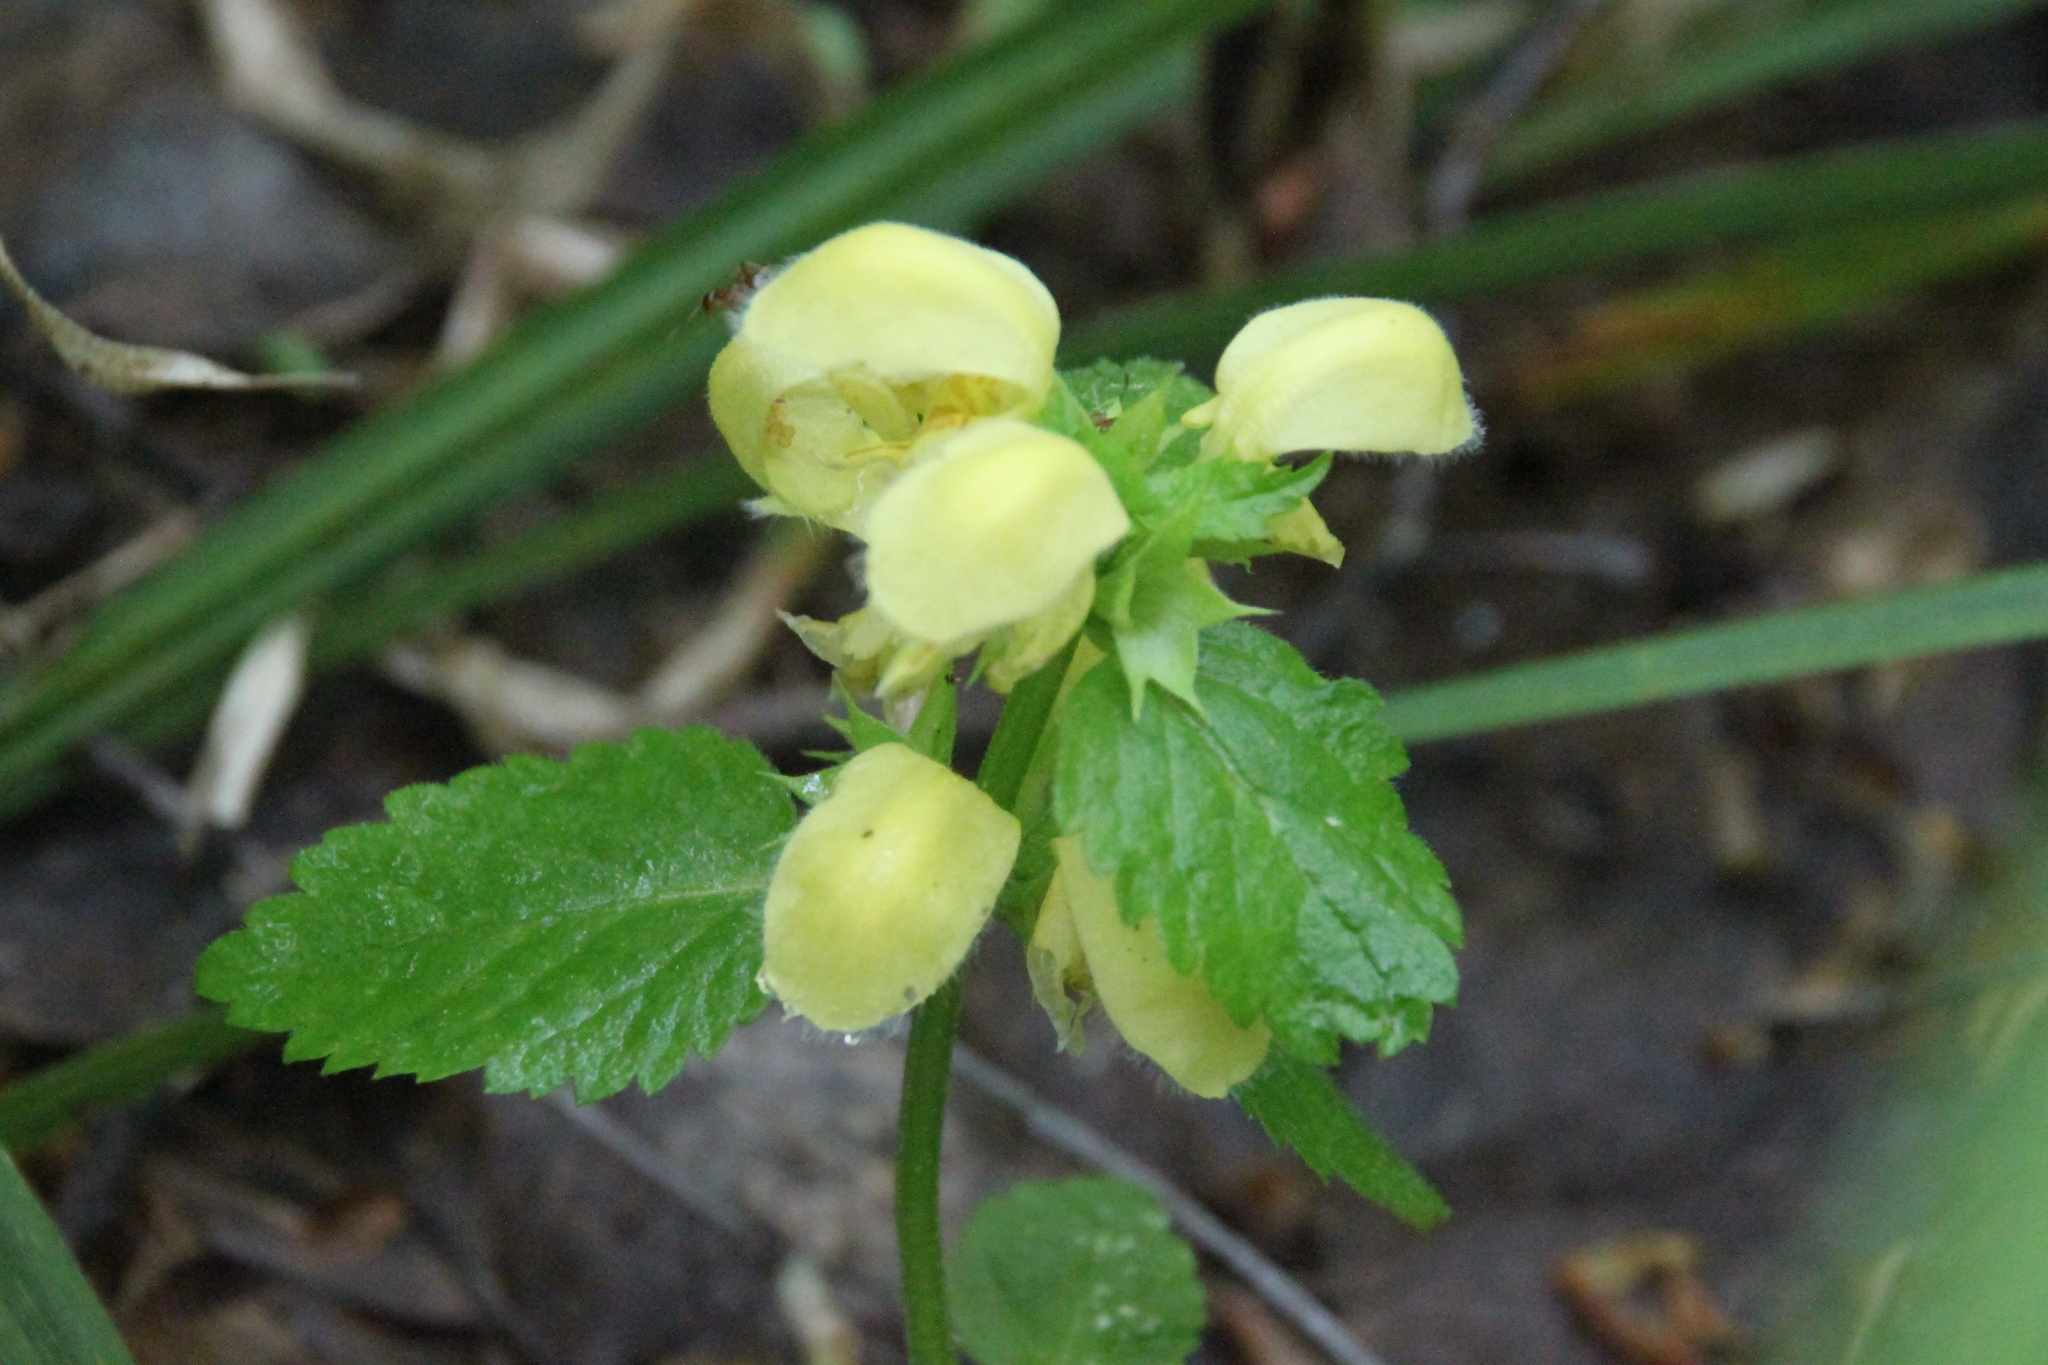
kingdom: Plantae
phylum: Tracheophyta
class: Magnoliopsida
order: Lamiales
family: Lamiaceae
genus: Lamium
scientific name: Lamium galeobdolon
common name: Yellow archangel
